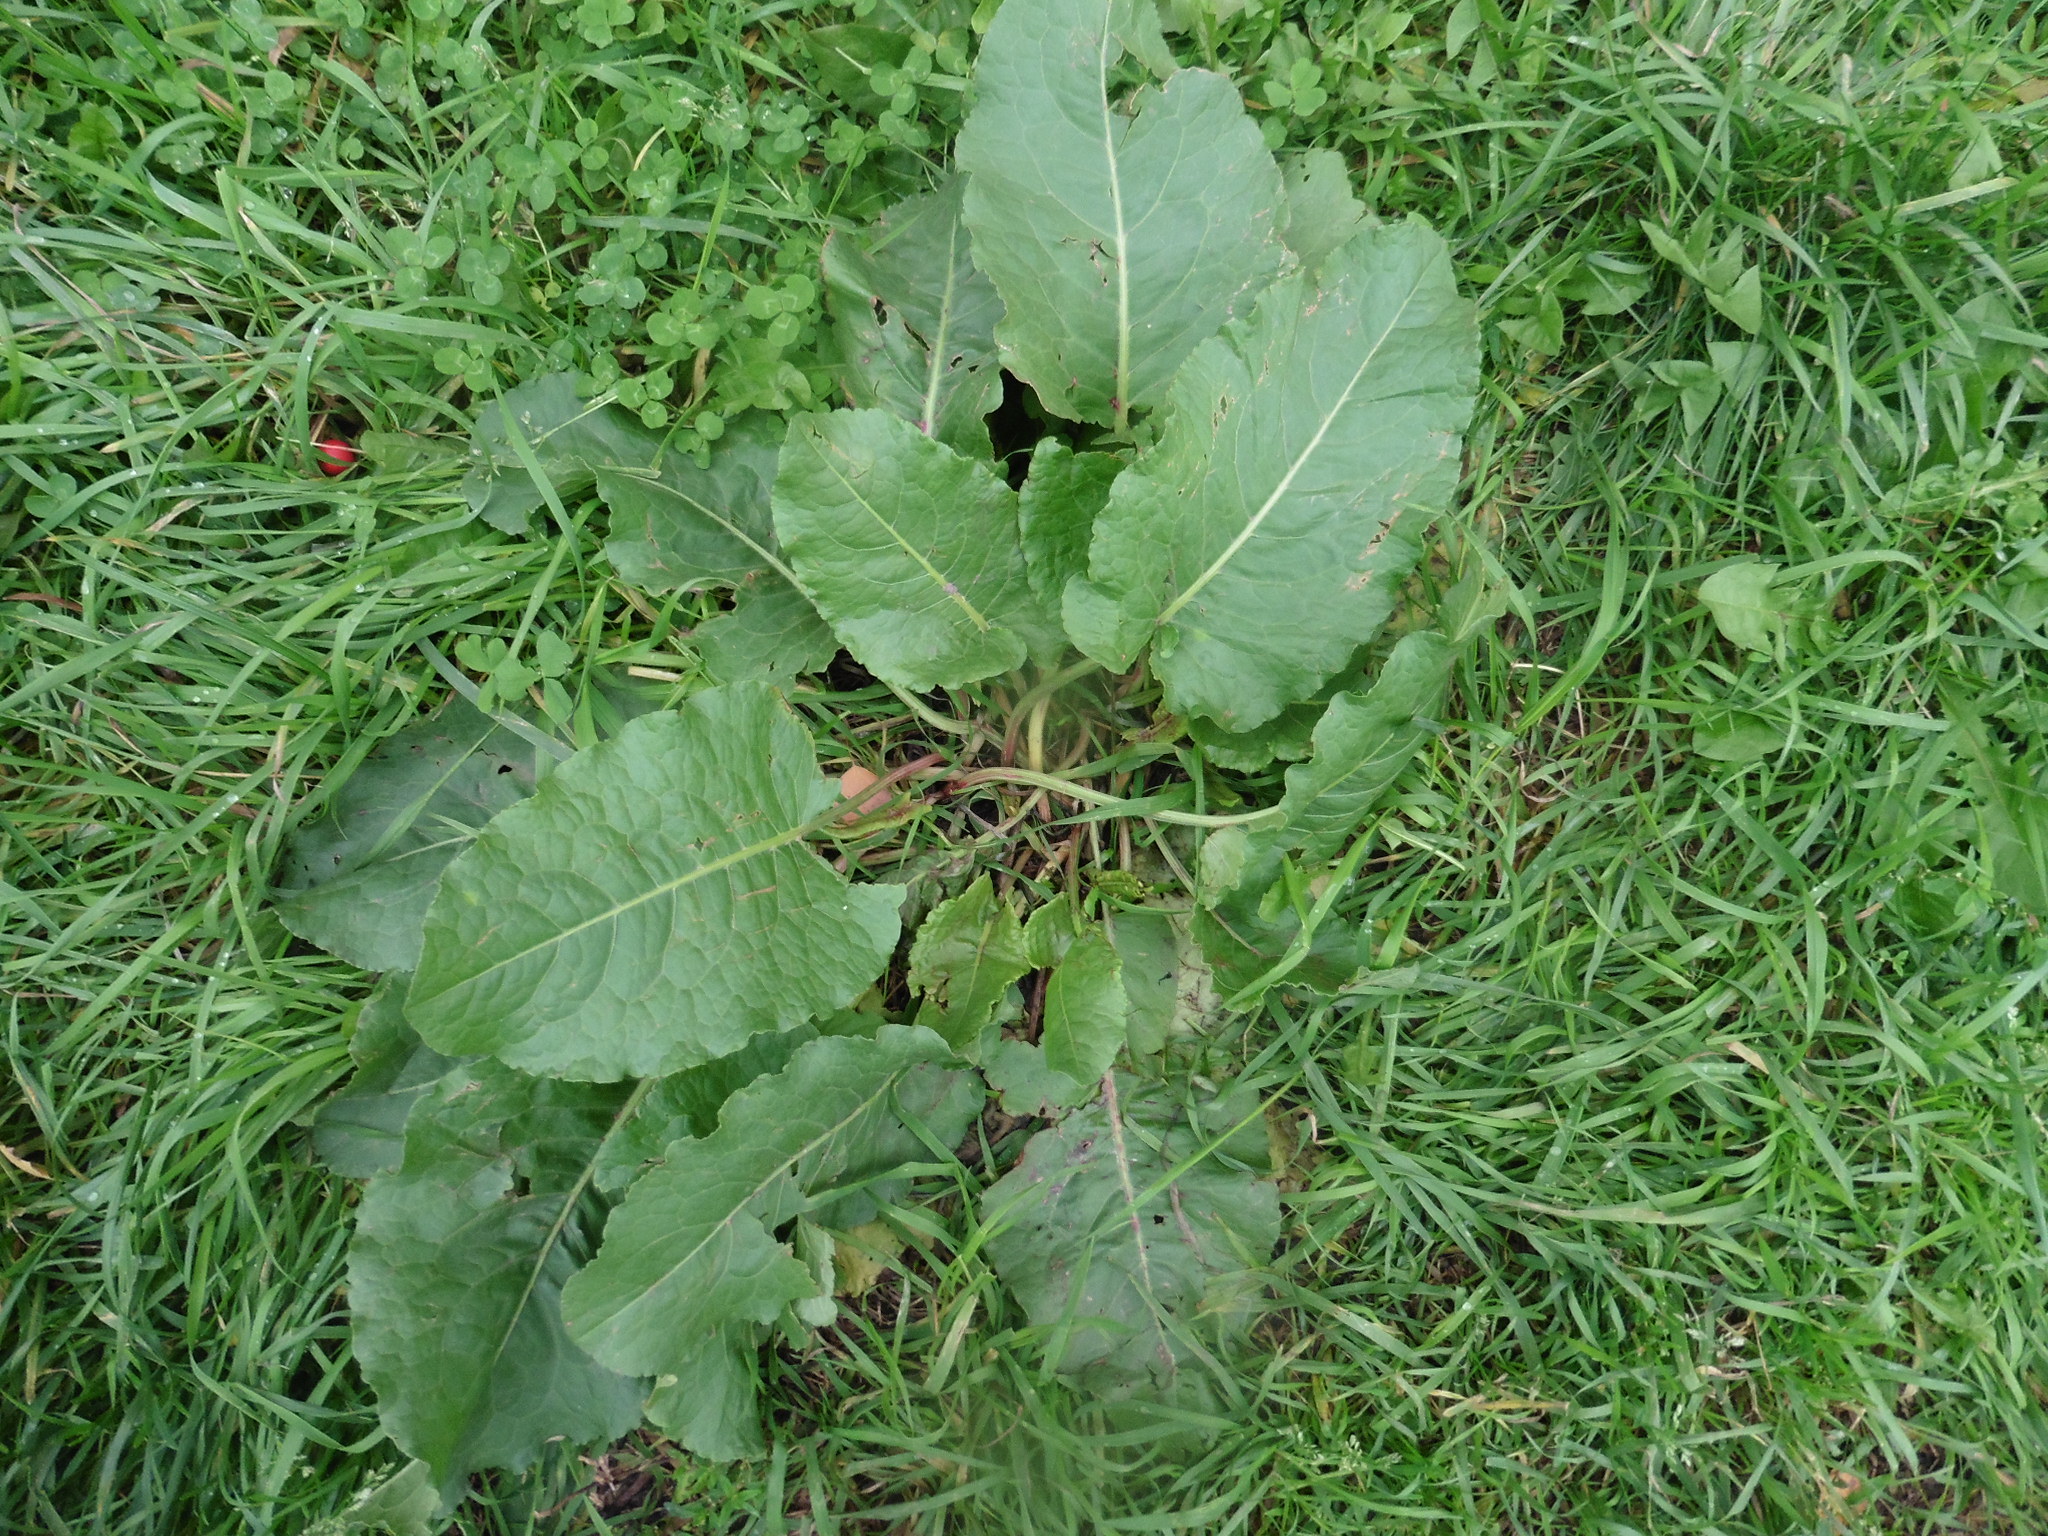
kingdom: Plantae
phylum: Tracheophyta
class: Magnoliopsida
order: Caryophyllales
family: Polygonaceae
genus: Rumex
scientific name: Rumex confertus
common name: Russian dock
